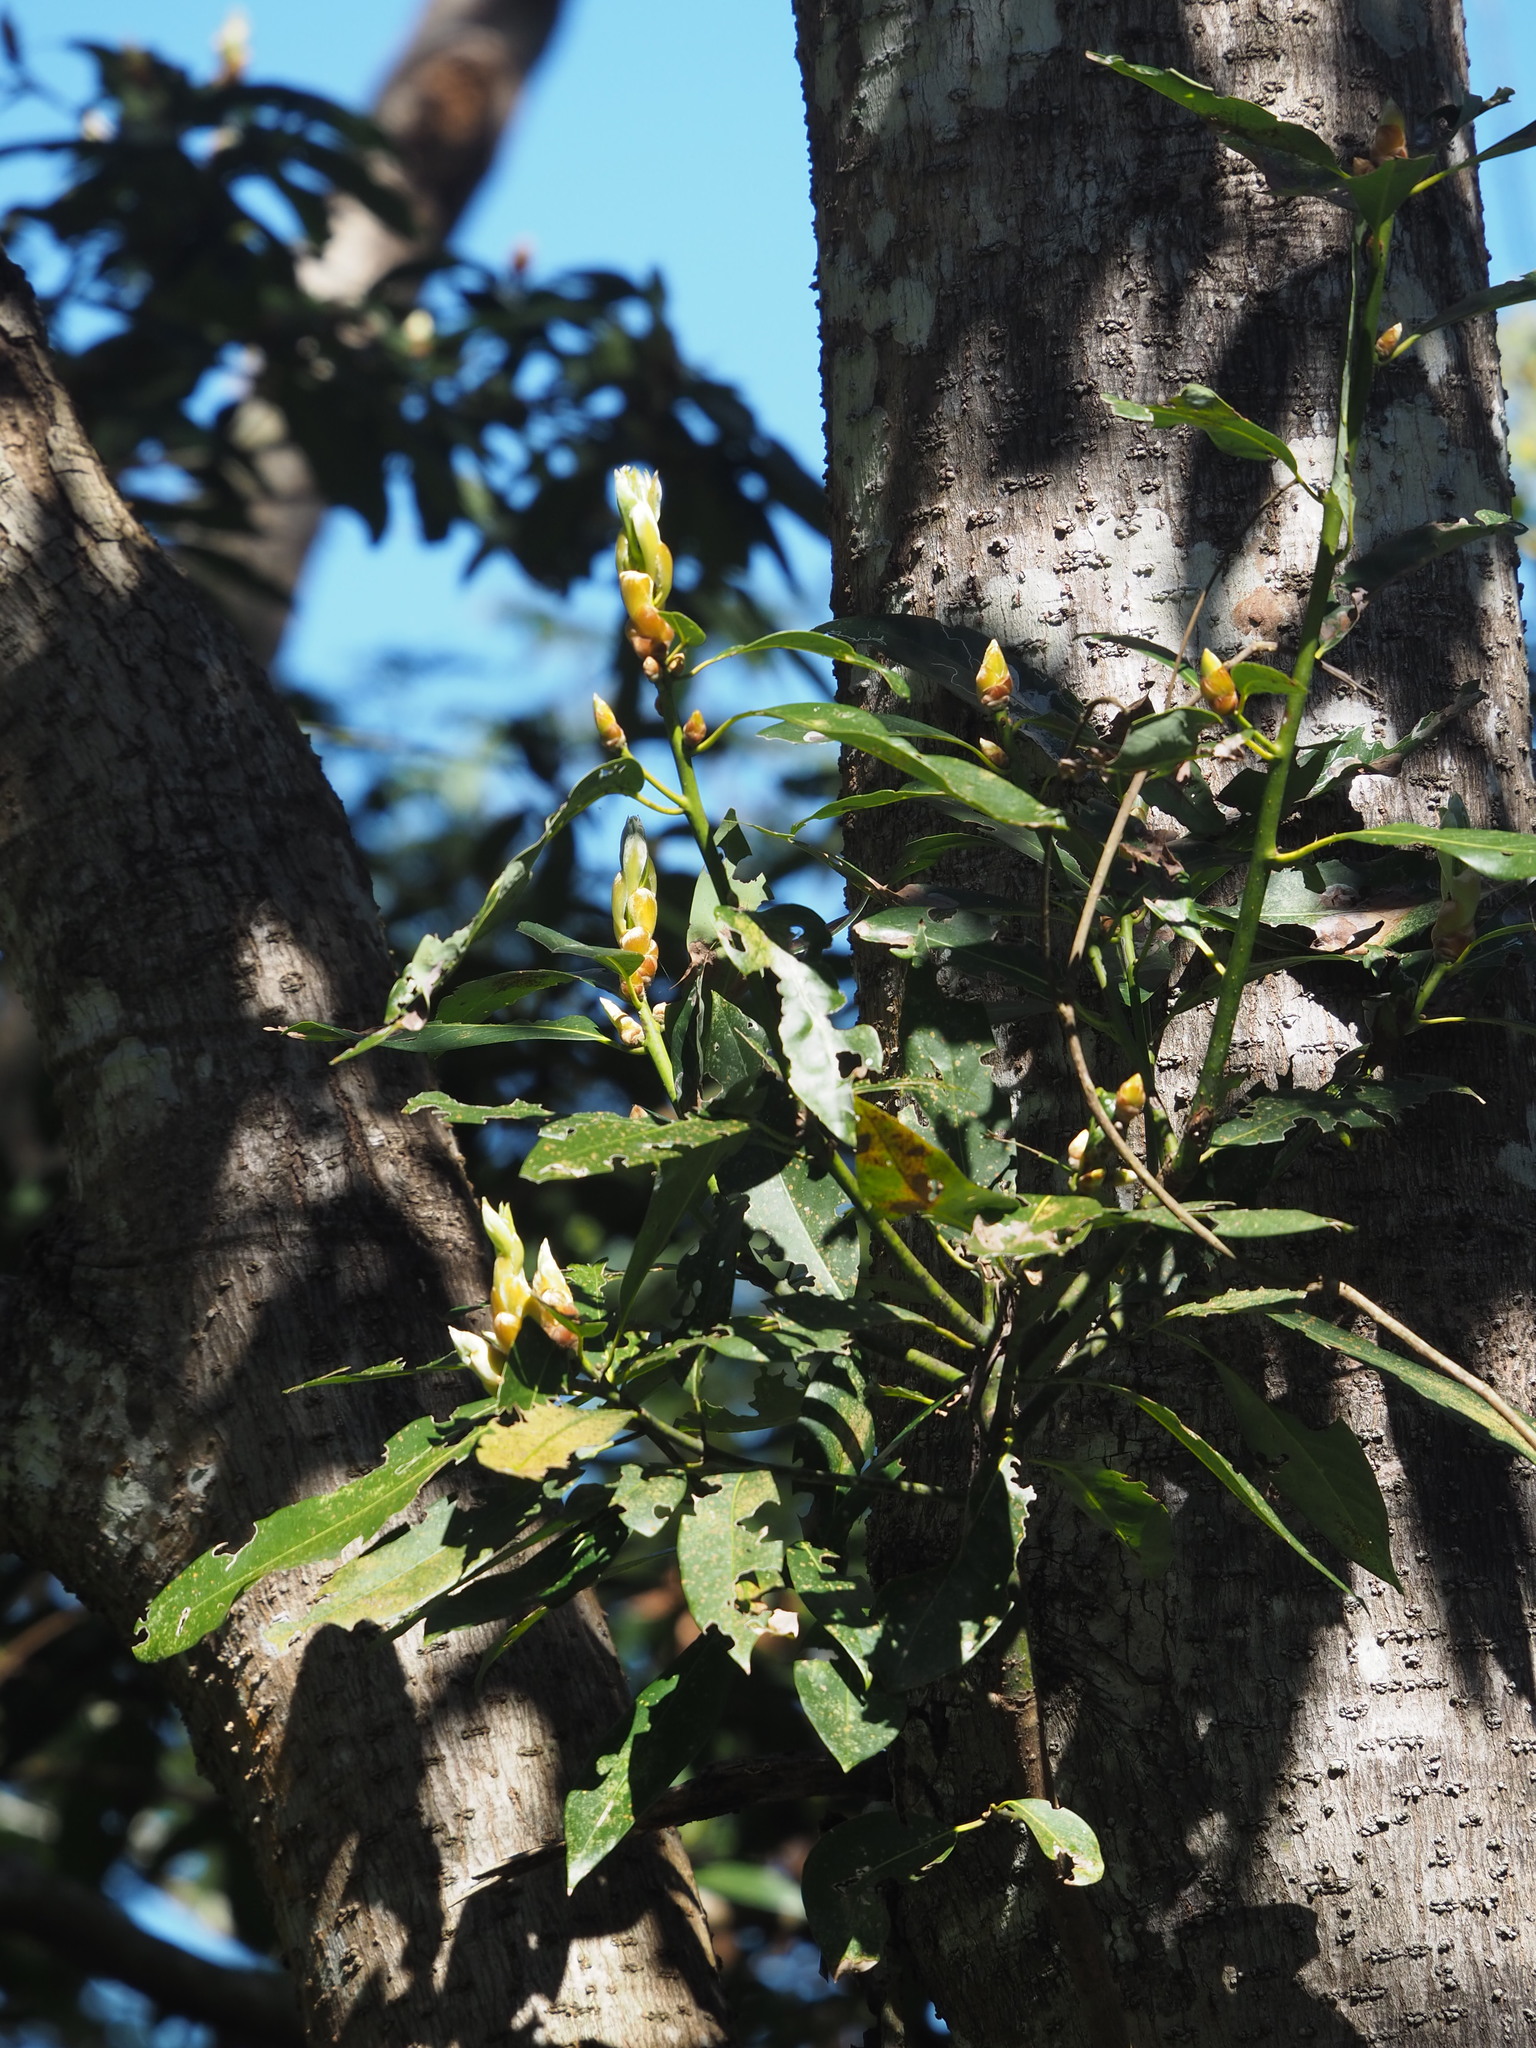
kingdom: Plantae
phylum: Tracheophyta
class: Magnoliopsida
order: Laurales
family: Lauraceae
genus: Machilus
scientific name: Machilus thunbergii
